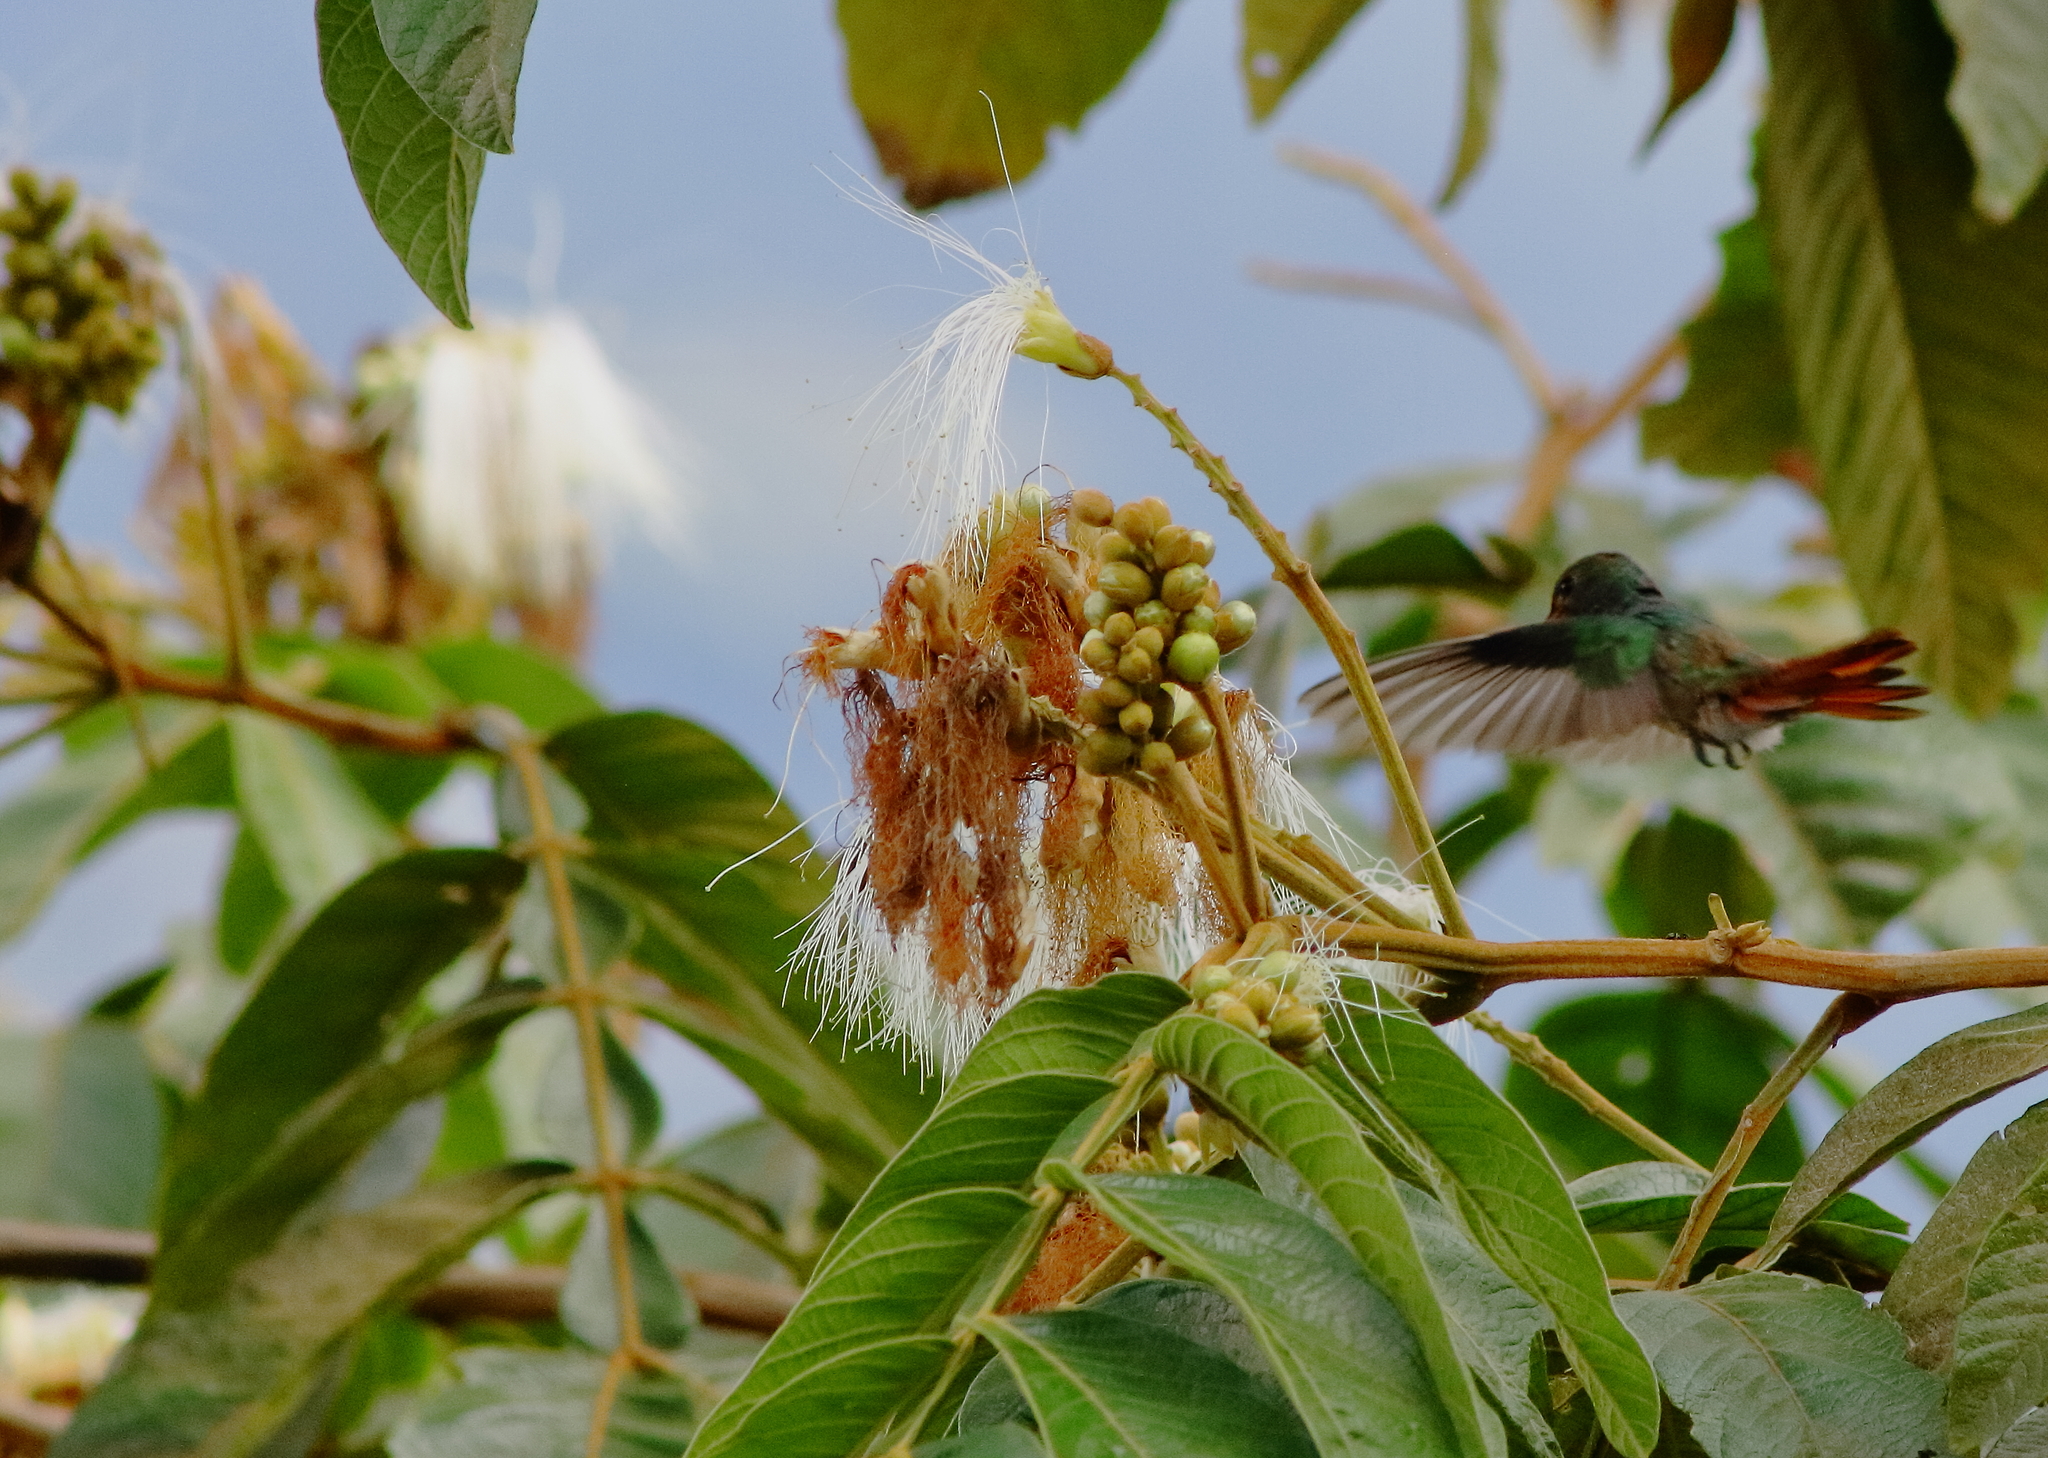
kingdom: Animalia
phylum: Chordata
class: Aves
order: Apodiformes
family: Trochilidae
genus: Amazilia
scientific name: Amazilia tzacatl
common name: Rufous-tailed hummingbird
